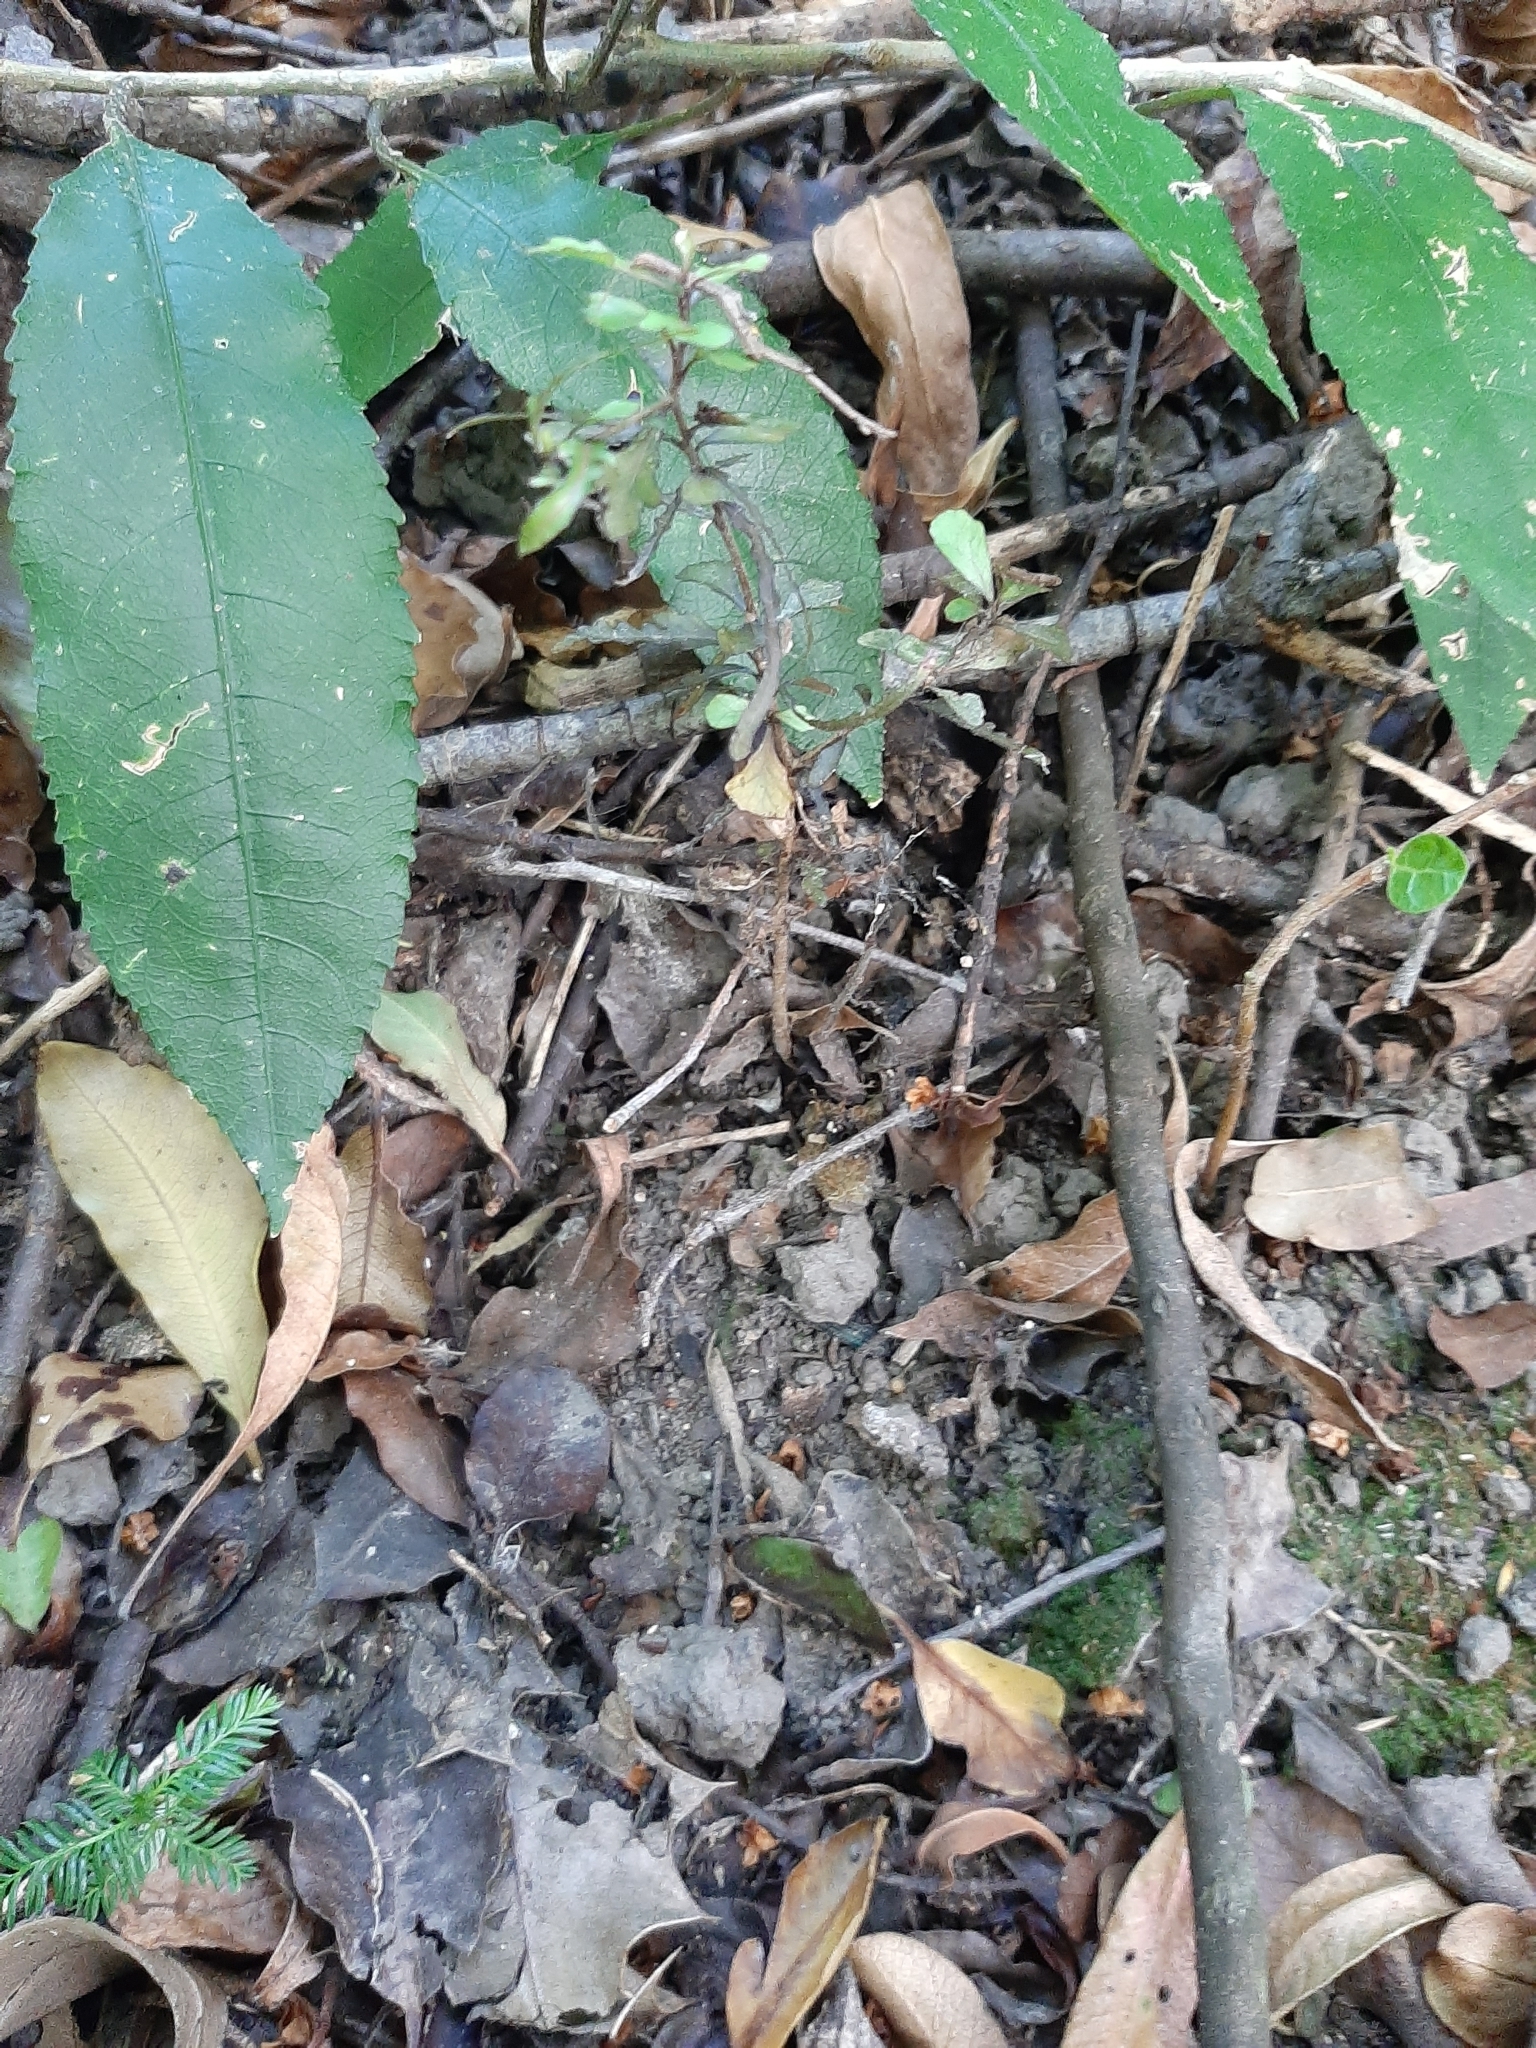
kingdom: Plantae
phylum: Tracheophyta
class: Magnoliopsida
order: Oxalidales
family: Elaeocarpaceae
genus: Elaeocarpus
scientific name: Elaeocarpus hookerianus
